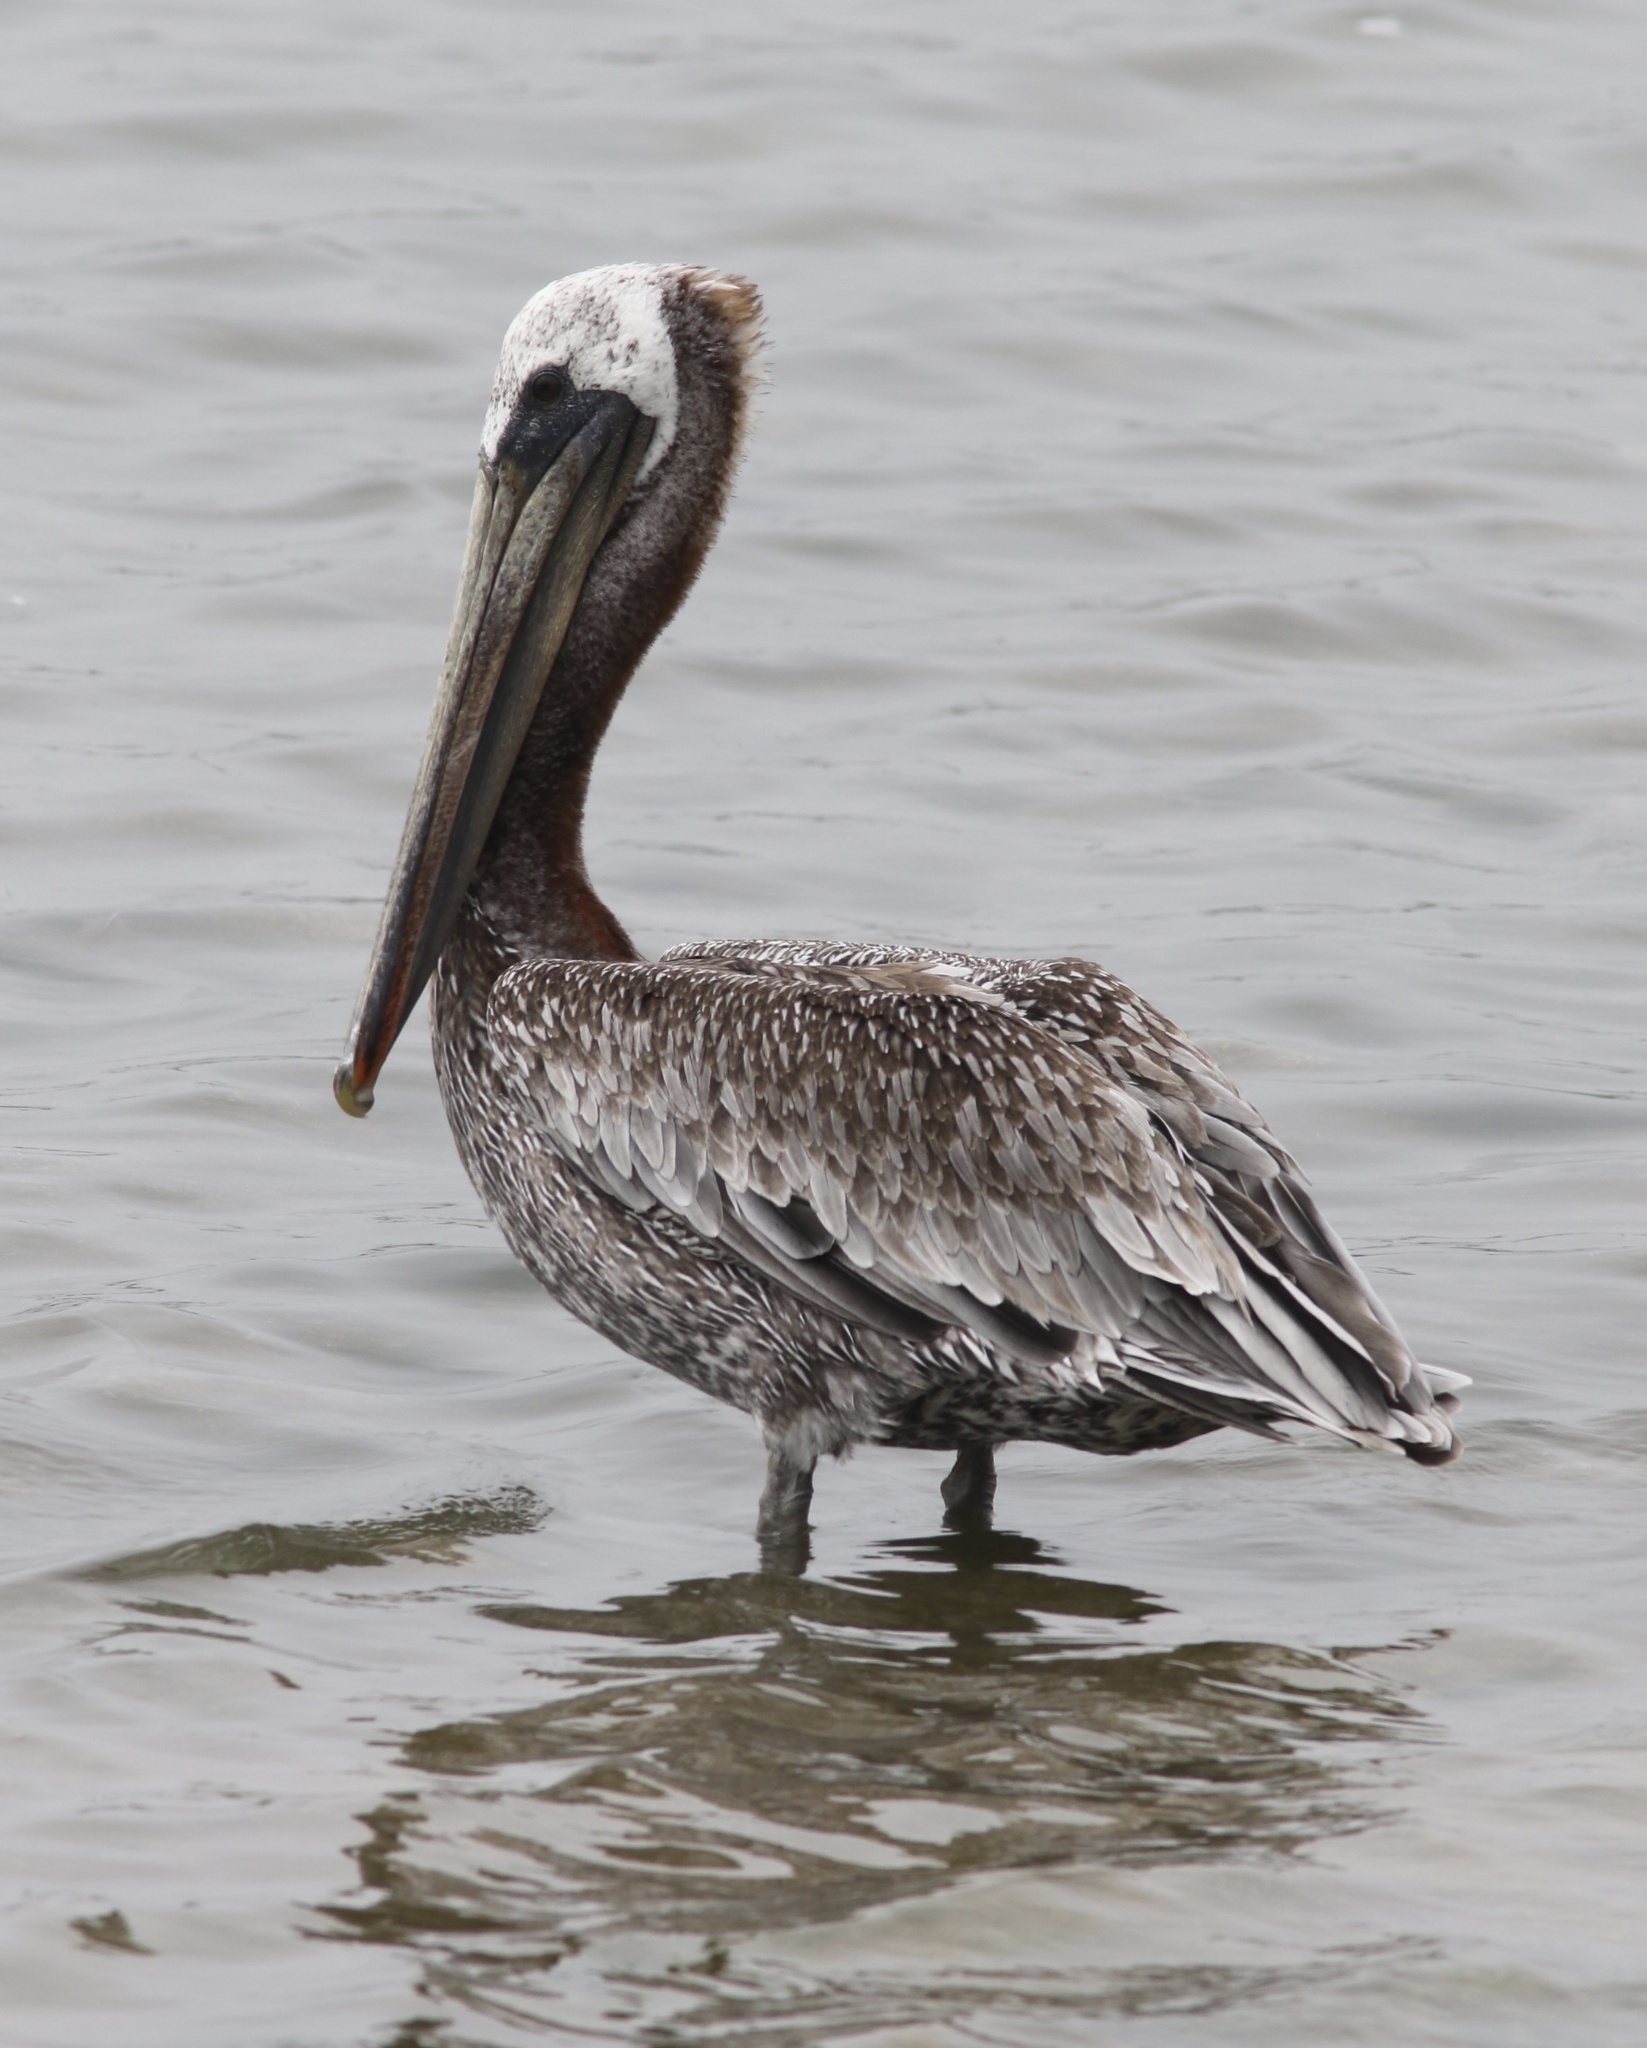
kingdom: Animalia
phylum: Chordata
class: Aves
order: Pelecaniformes
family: Pelecanidae
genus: Pelecanus
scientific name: Pelecanus occidentalis
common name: Brown pelican
